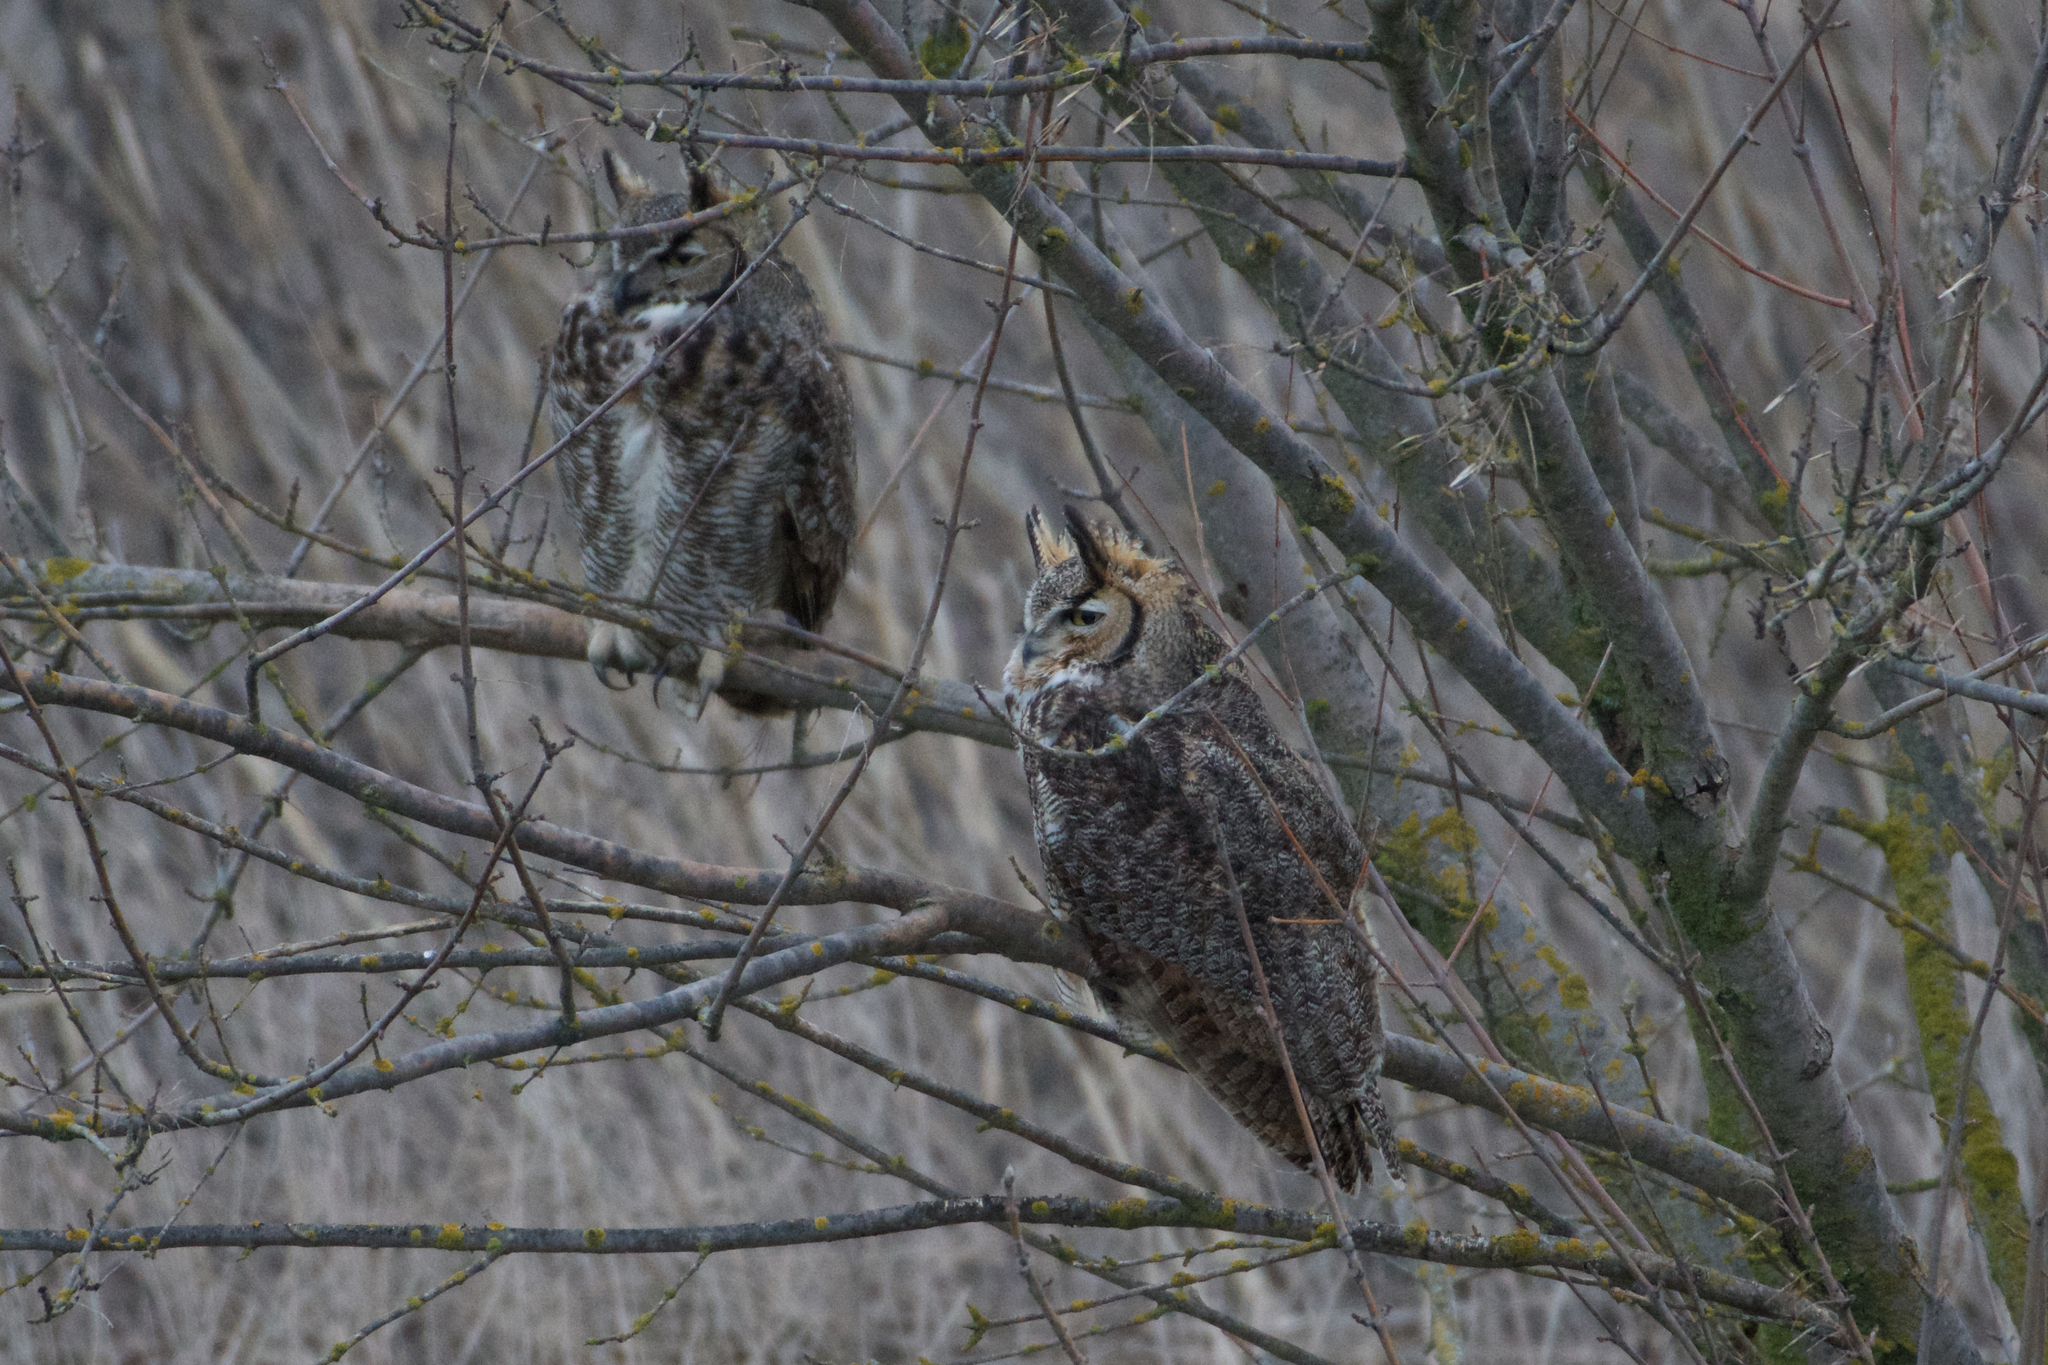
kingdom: Animalia
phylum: Chordata
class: Aves
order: Strigiformes
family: Strigidae
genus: Bubo
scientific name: Bubo virginianus
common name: Great horned owl
